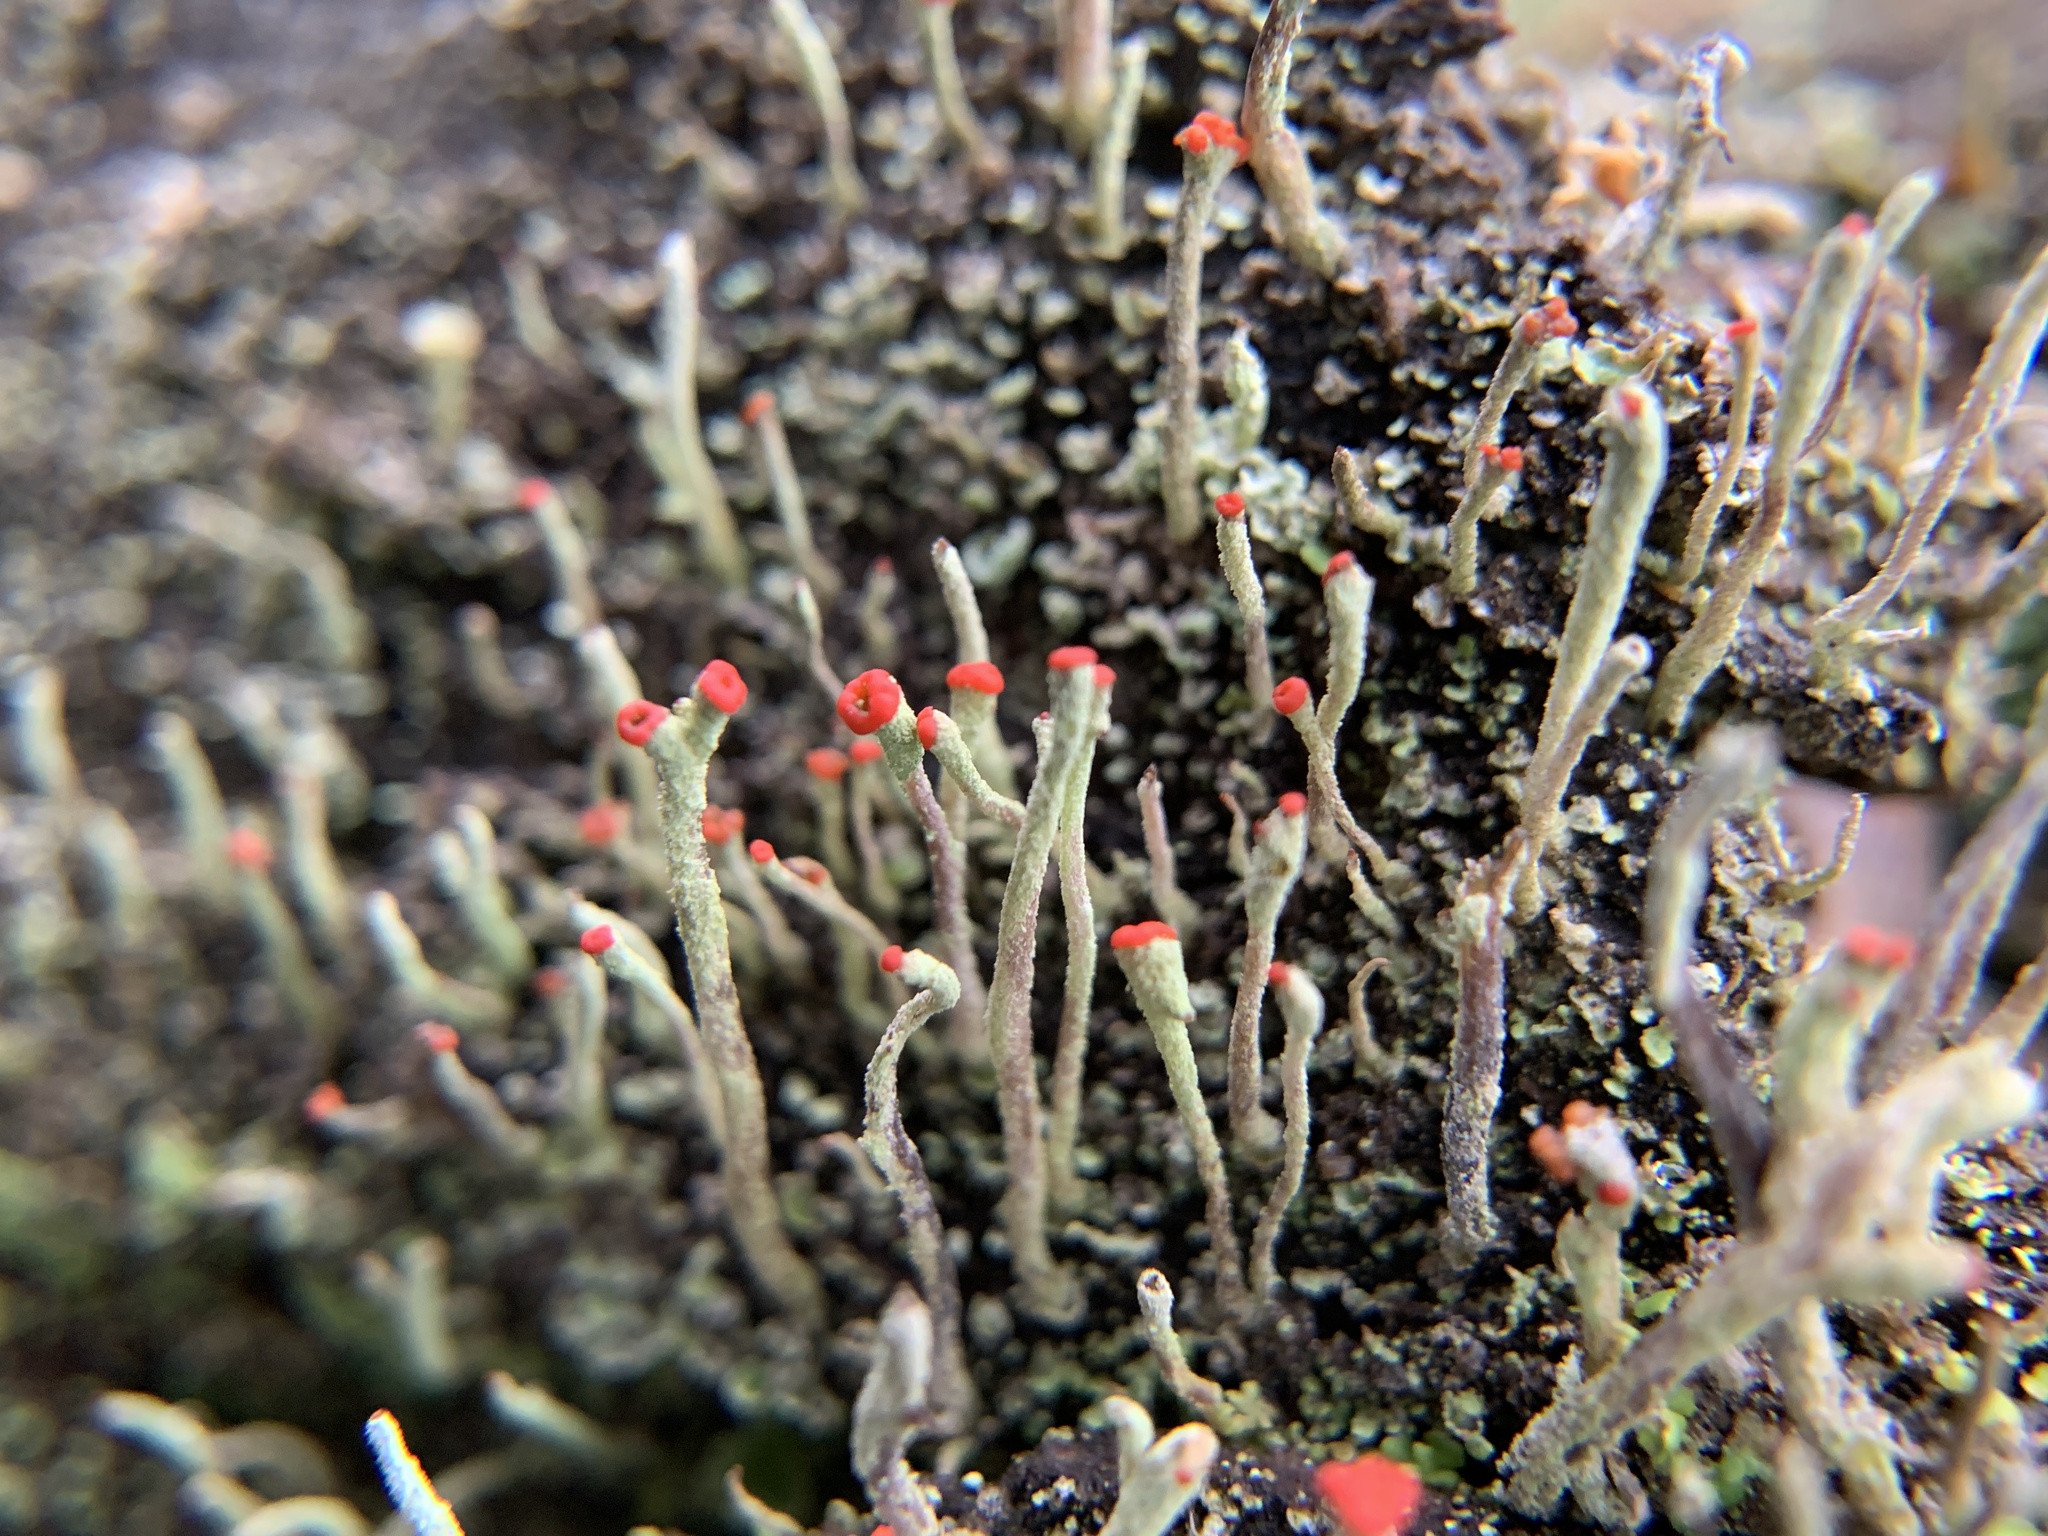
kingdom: Fungi
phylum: Ascomycota
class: Lecanoromycetes
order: Lecanorales
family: Cladoniaceae
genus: Cladonia
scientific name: Cladonia macilenta
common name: Lipstick powderhorn
